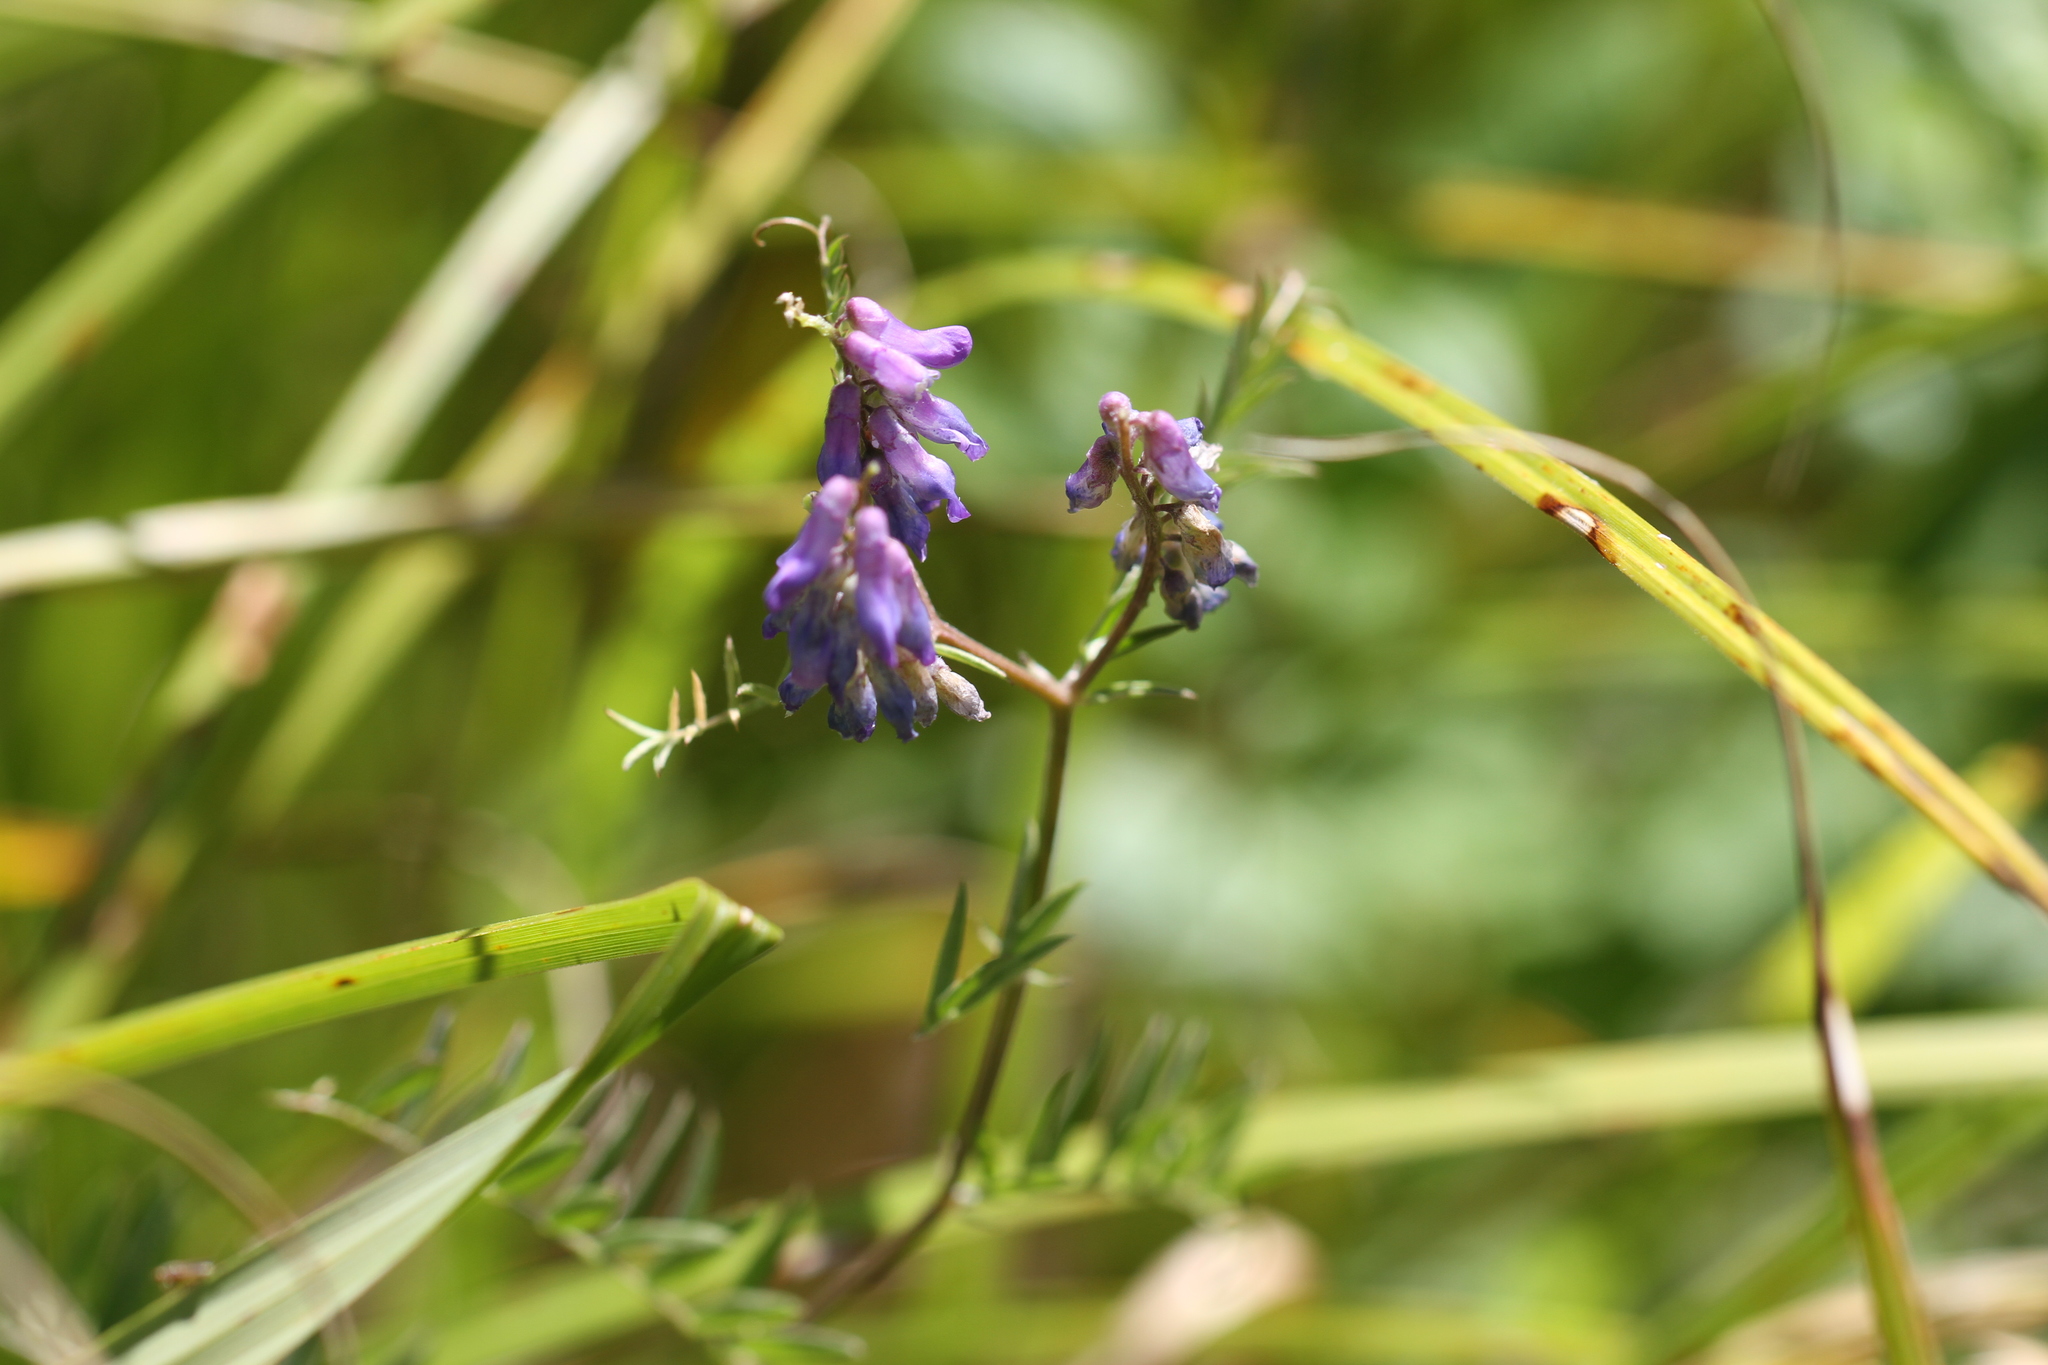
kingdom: Plantae
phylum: Tracheophyta
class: Magnoliopsida
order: Fabales
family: Fabaceae
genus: Vicia
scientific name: Vicia cracca
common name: Bird vetch
